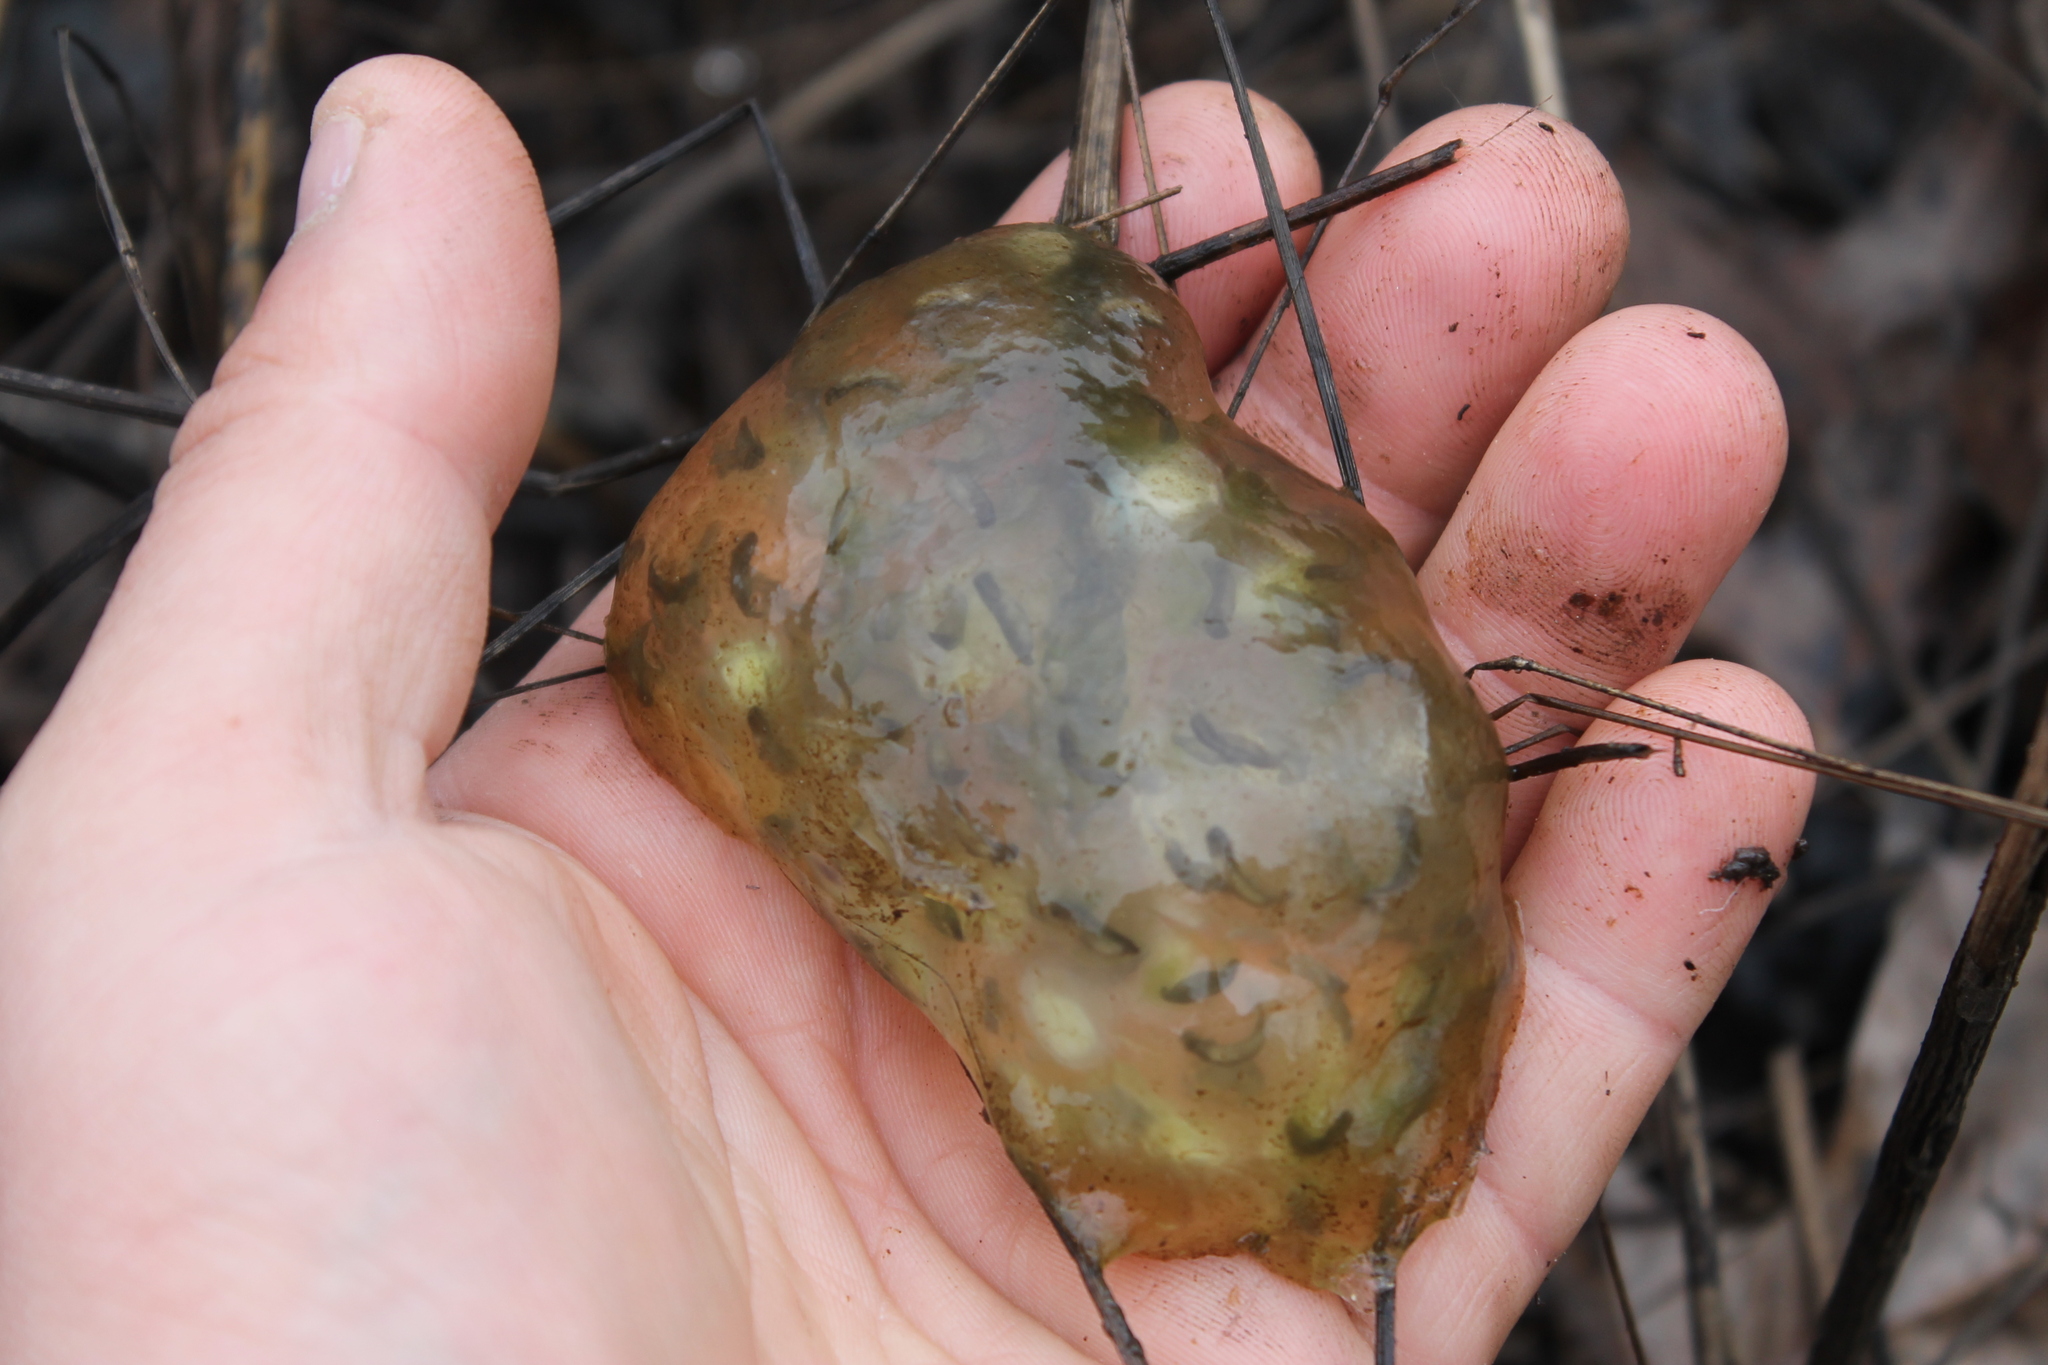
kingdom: Animalia
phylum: Chordata
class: Amphibia
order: Caudata
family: Ambystomatidae
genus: Ambystoma
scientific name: Ambystoma maculatum
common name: Spotted salamander
